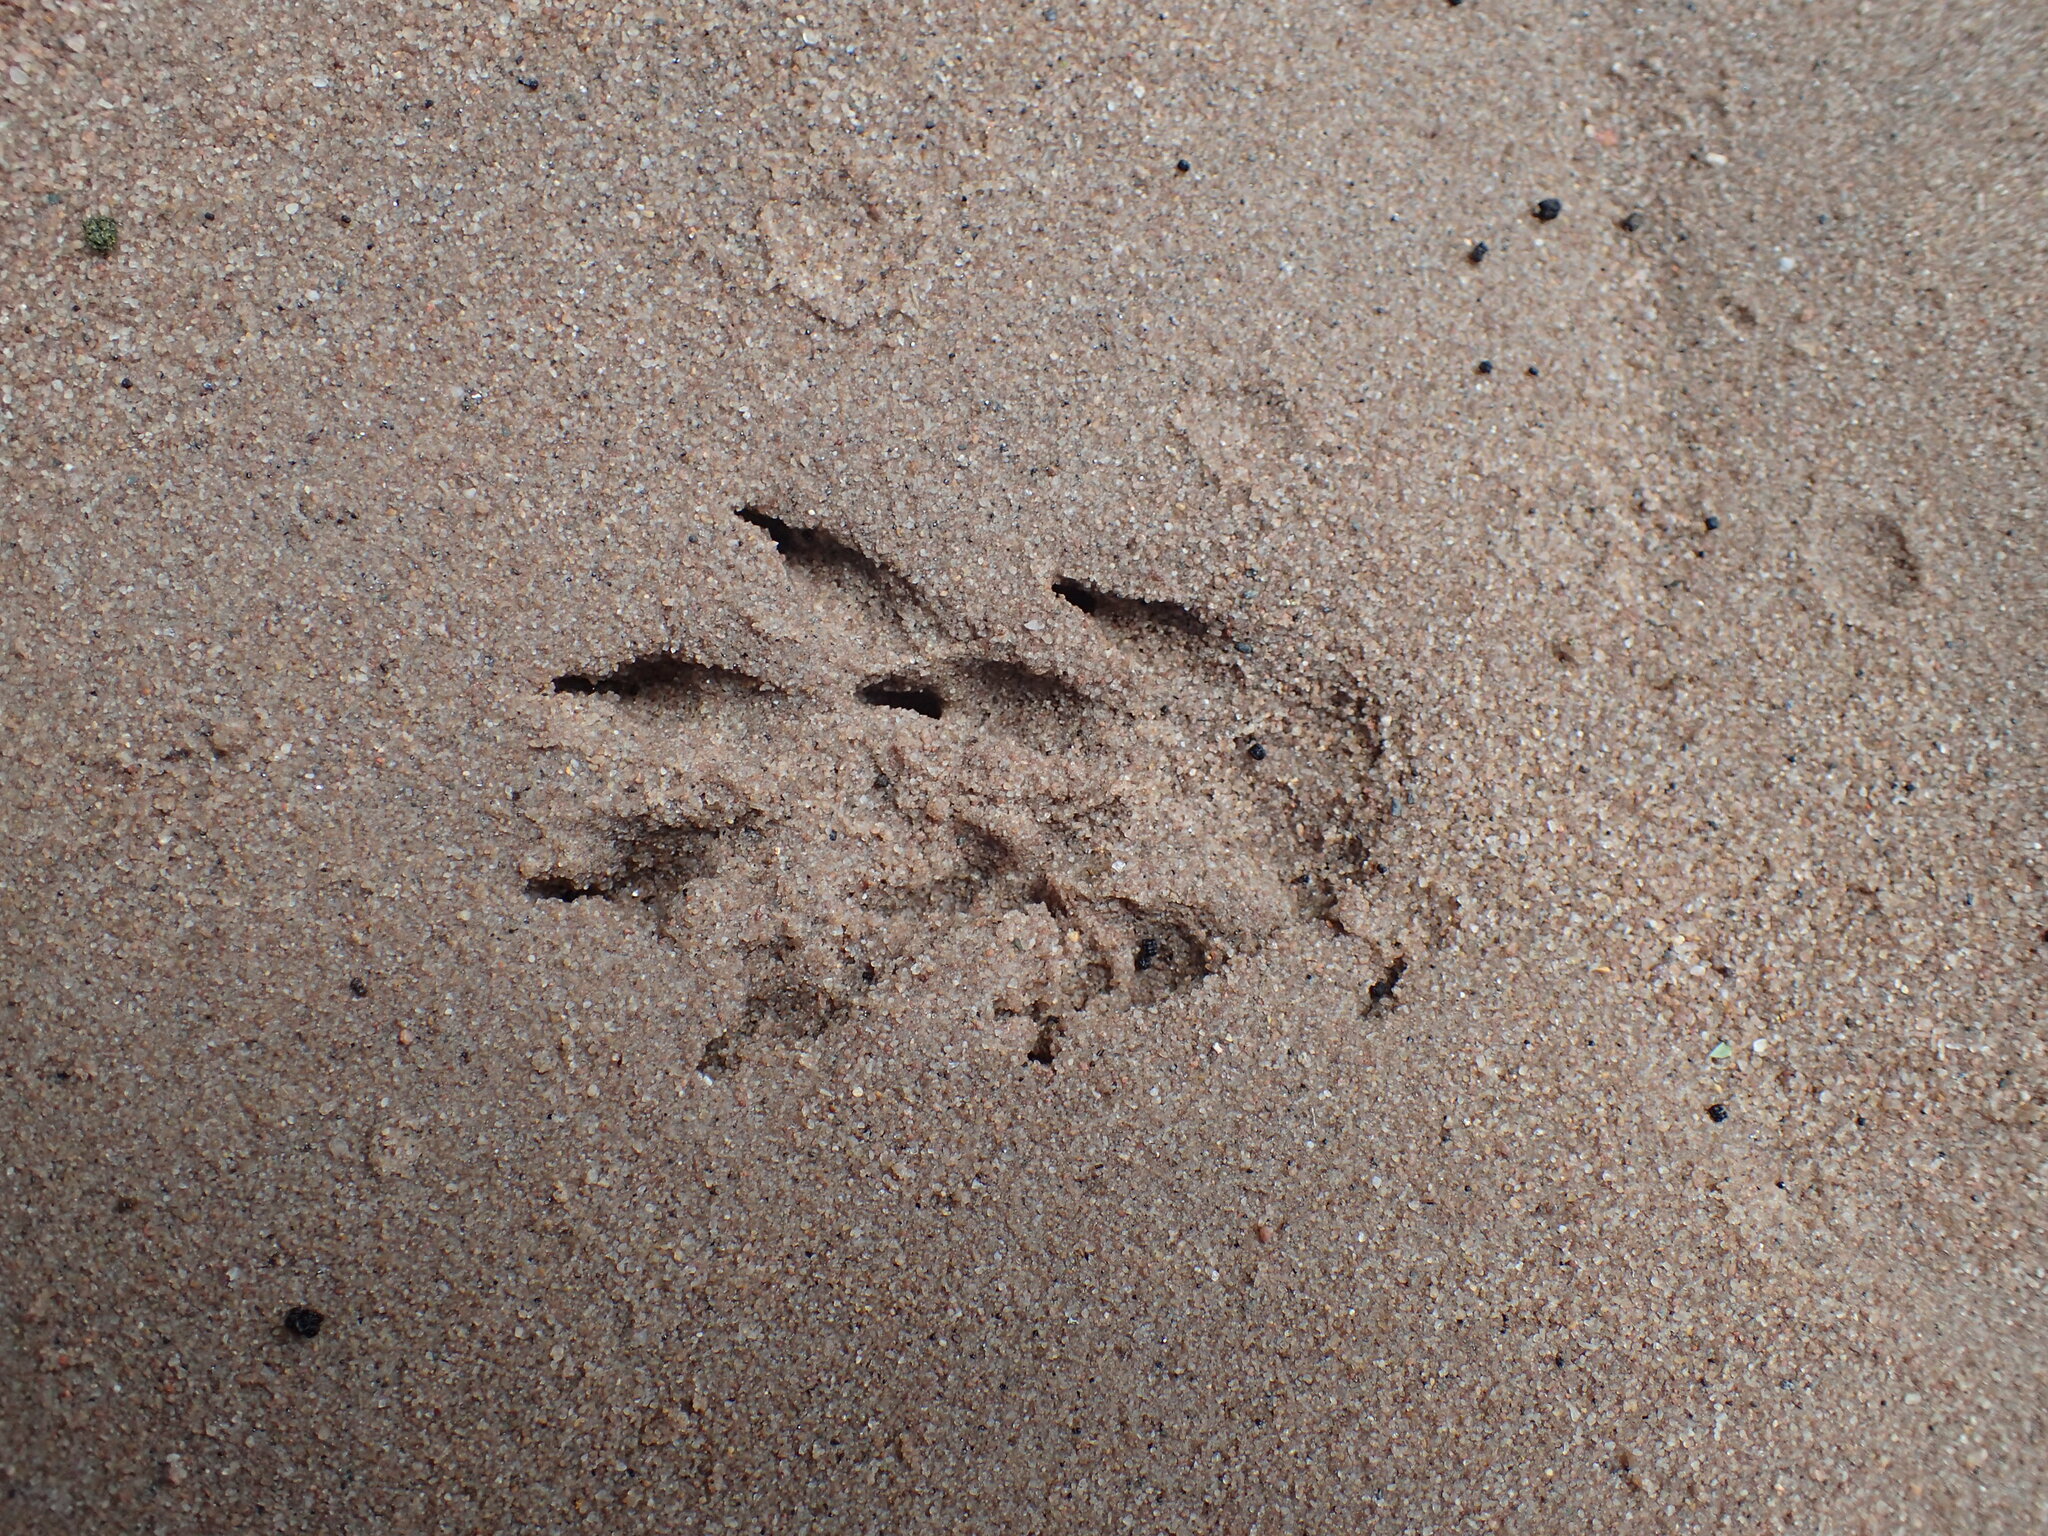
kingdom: Animalia
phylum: Chordata
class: Mammalia
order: Carnivora
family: Herpestidae
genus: Atilax
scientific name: Atilax paludinosus
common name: Marsh mongoose
